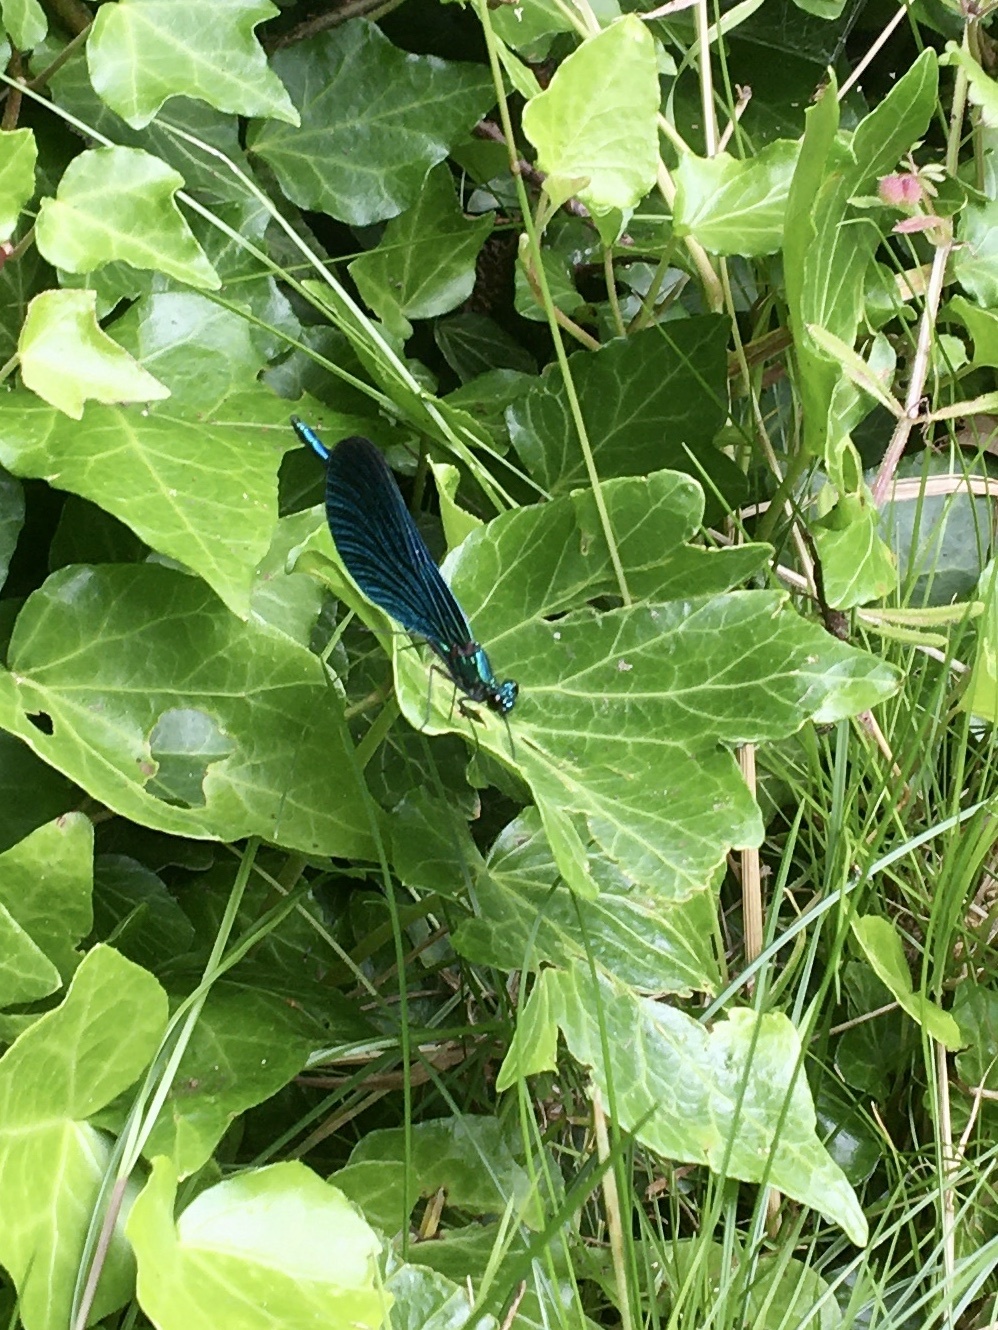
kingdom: Animalia
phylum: Arthropoda
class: Insecta
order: Odonata
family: Calopterygidae
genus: Calopteryx
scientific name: Calopteryx virgo
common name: Beautiful demoiselle
